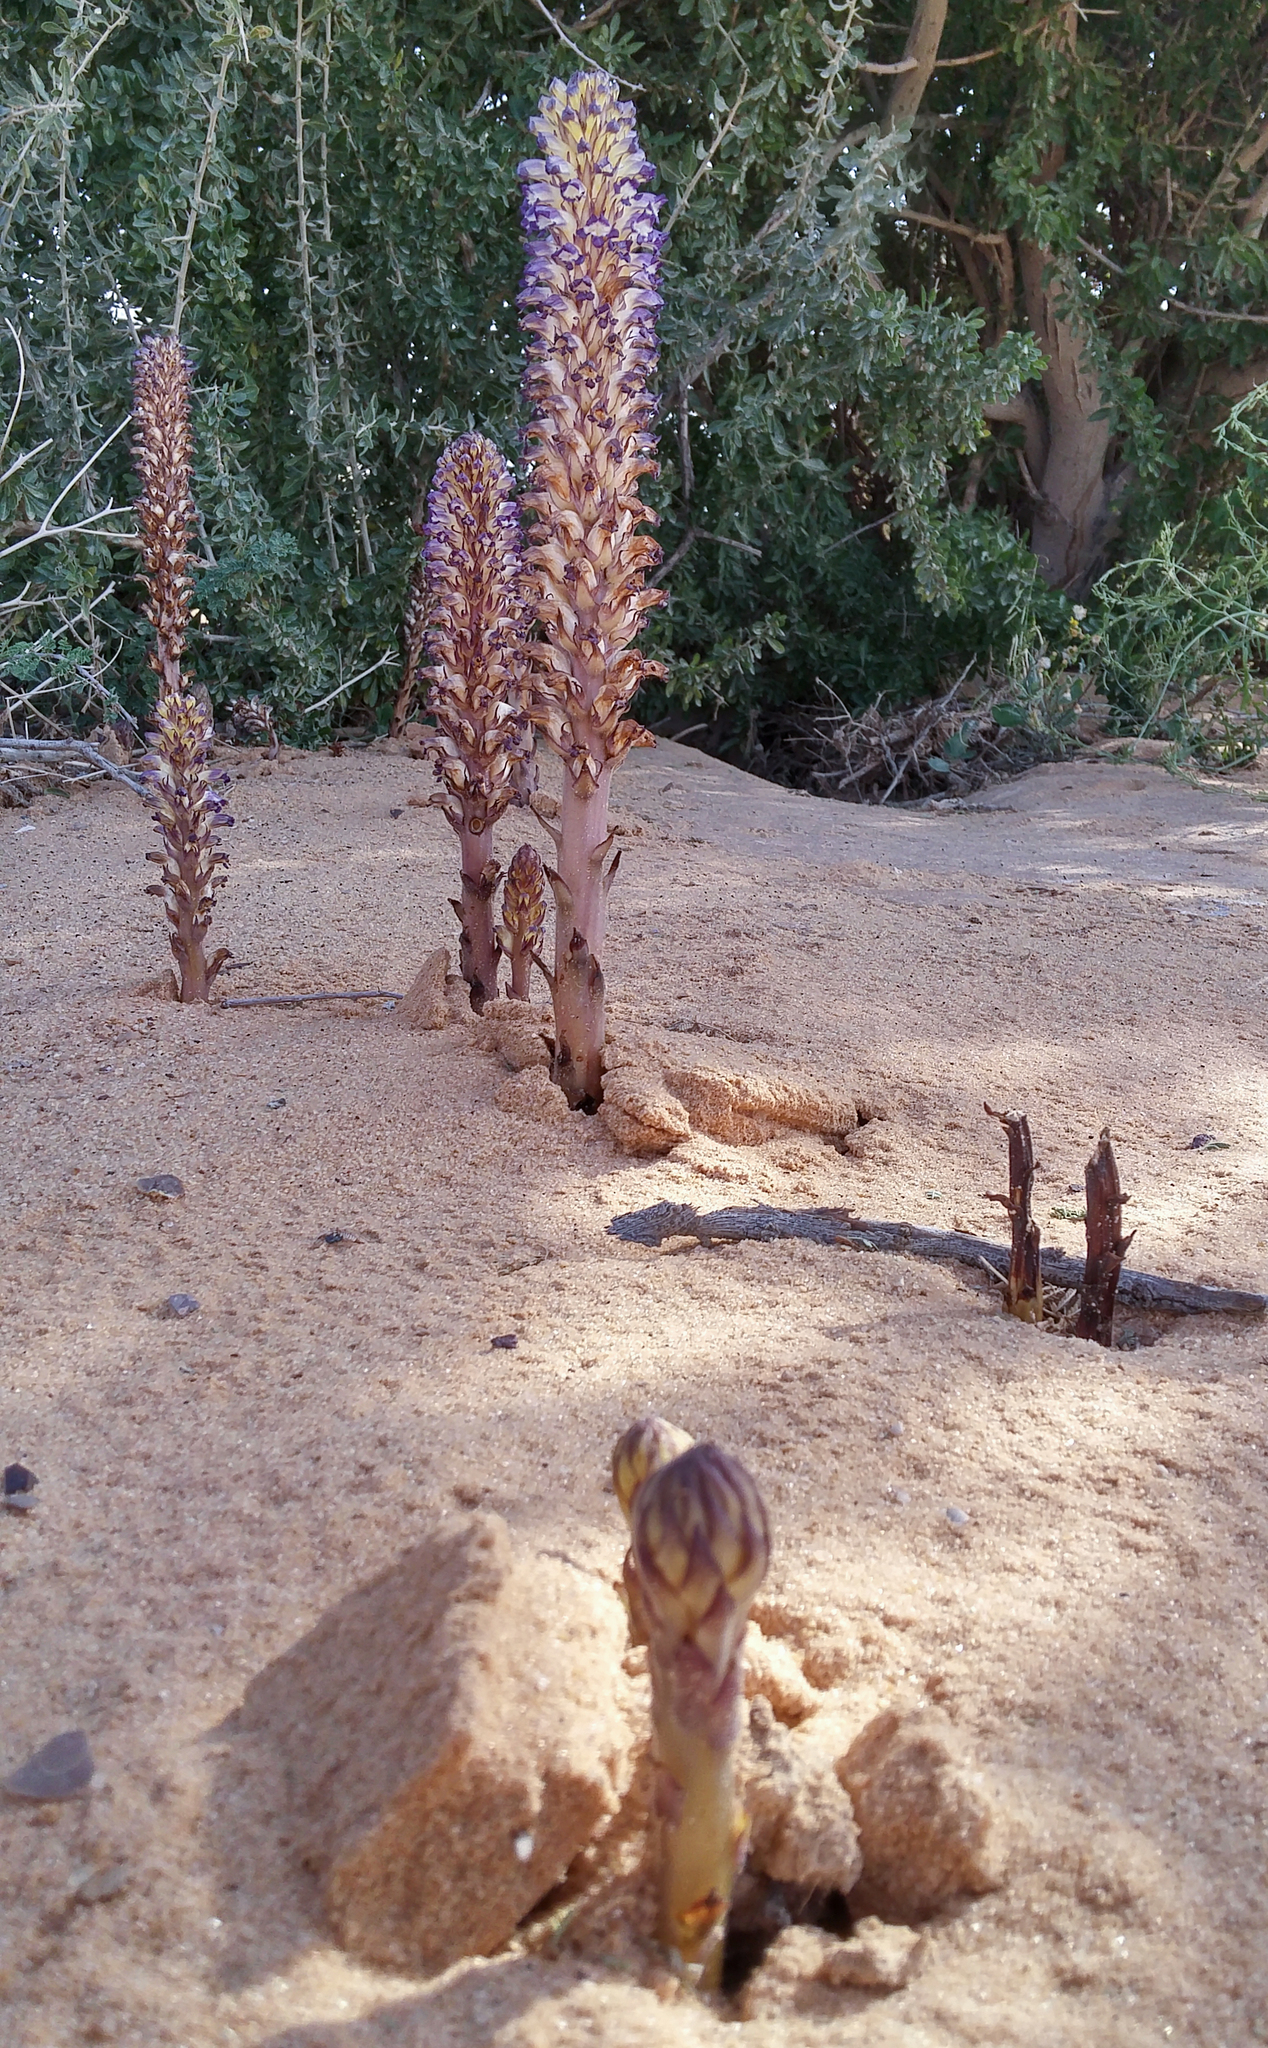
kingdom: Plantae
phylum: Tracheophyta
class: Magnoliopsida
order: Lamiales
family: Orobanchaceae
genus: Orobanche
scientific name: Orobanche cernua
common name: Australian broomrape
